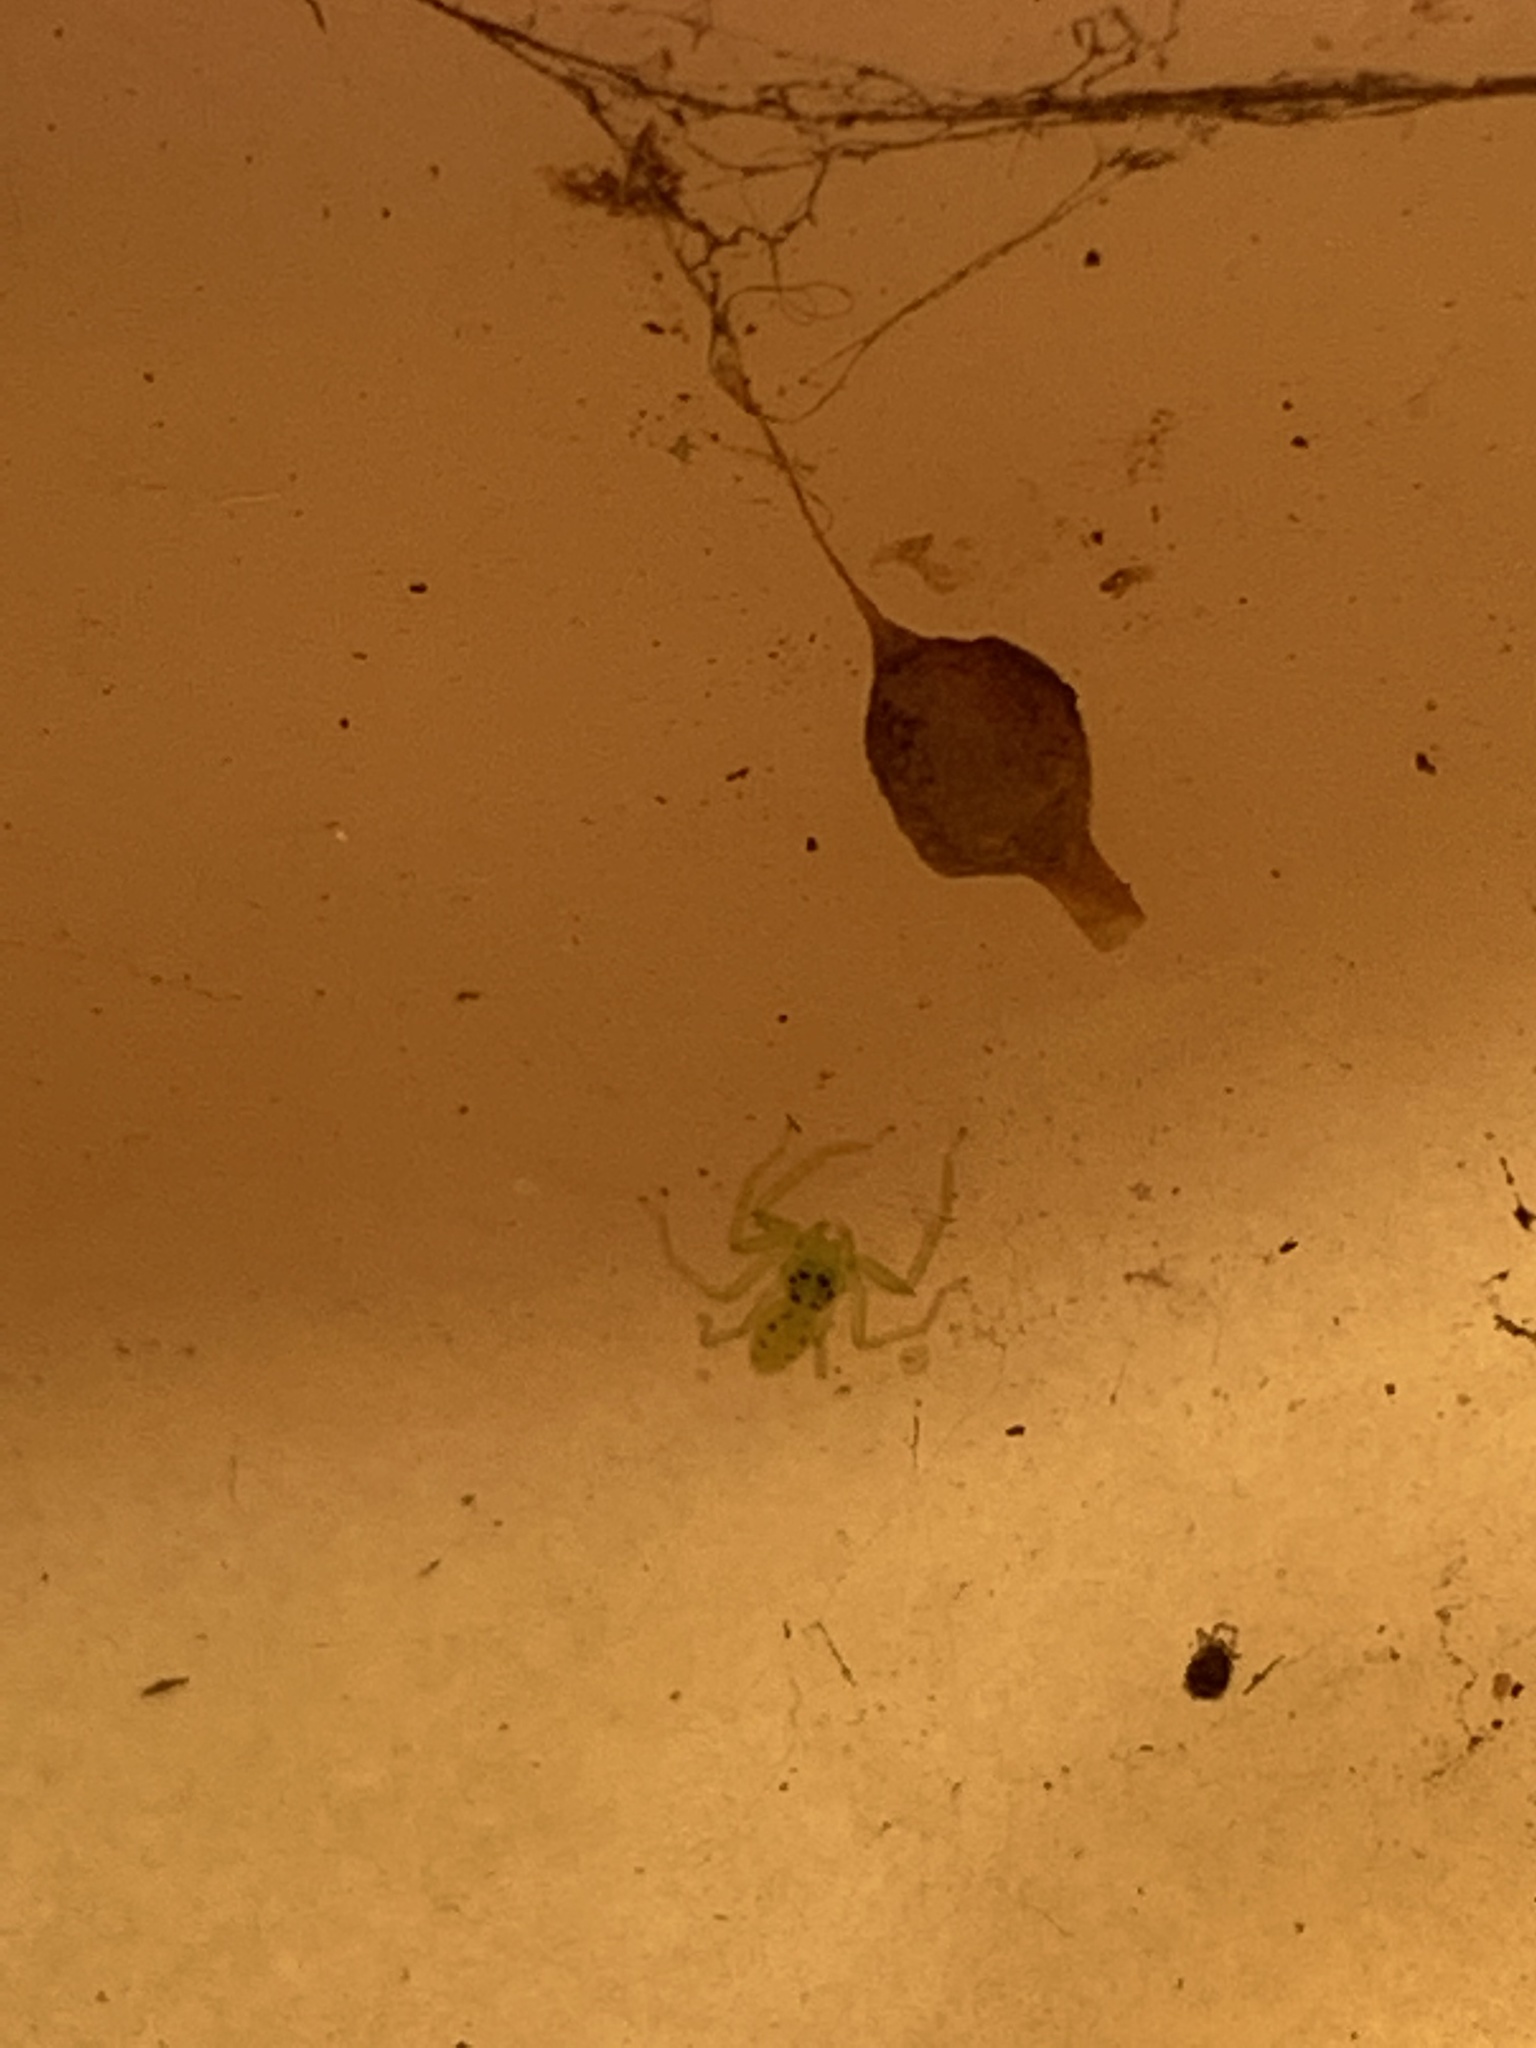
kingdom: Animalia
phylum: Arthropoda
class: Arachnida
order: Araneae
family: Salticidae
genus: Lyssomanes
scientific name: Lyssomanes viridis
